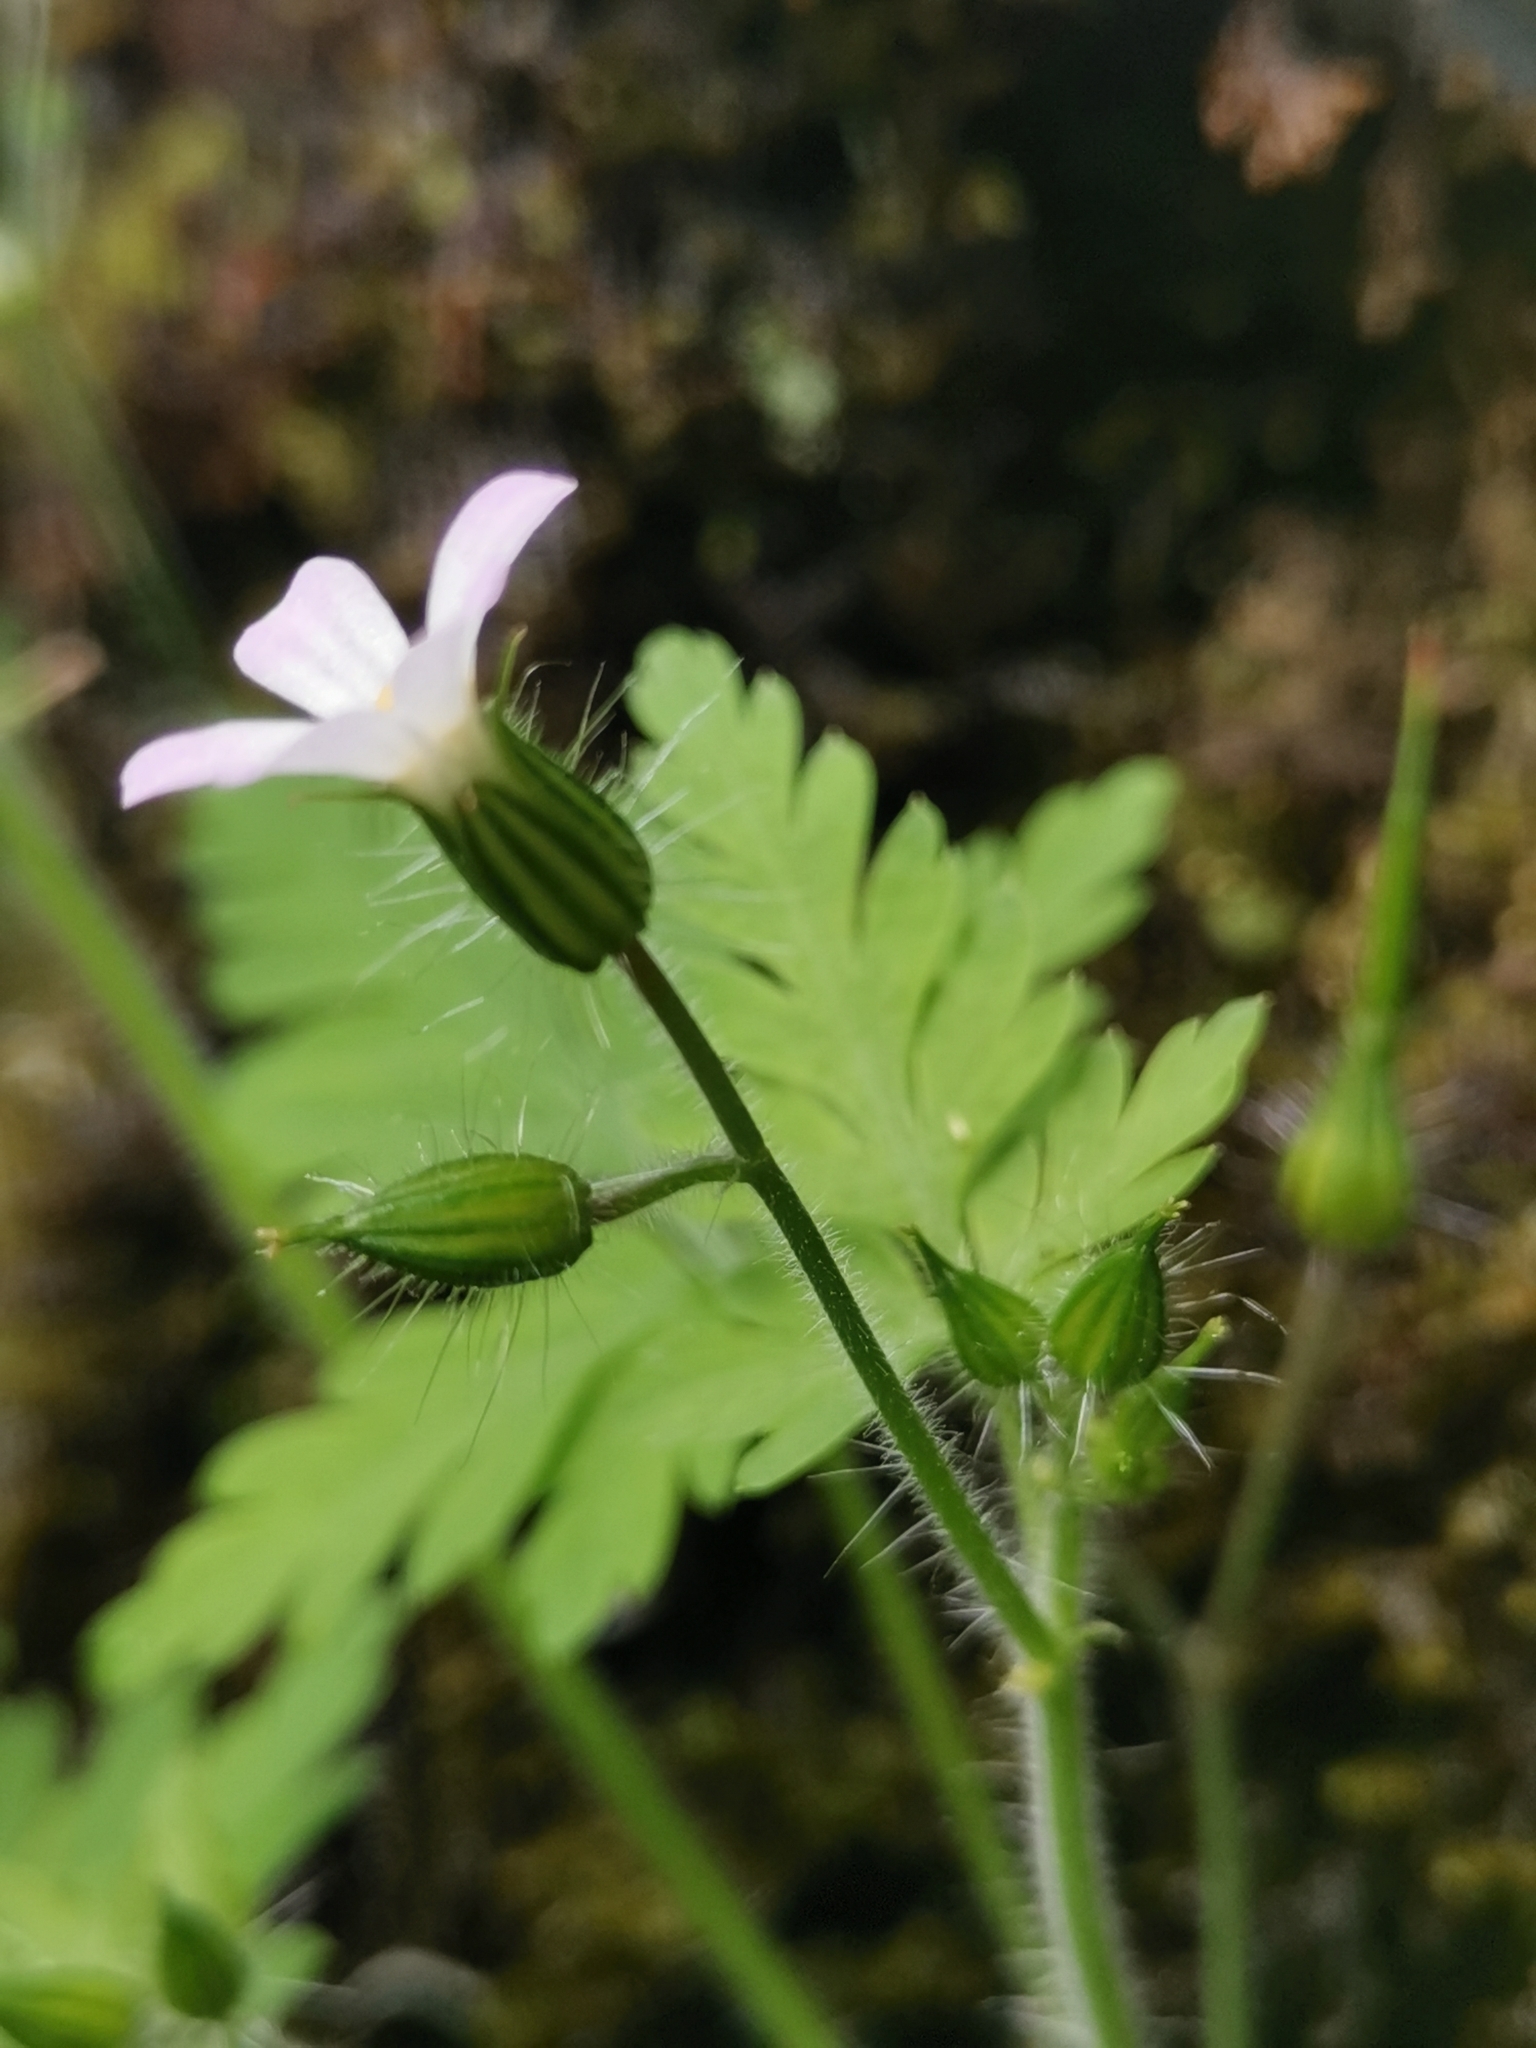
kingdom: Plantae
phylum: Tracheophyta
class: Magnoliopsida
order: Geraniales
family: Geraniaceae
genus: Geranium
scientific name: Geranium robertianum
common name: Herb-robert
